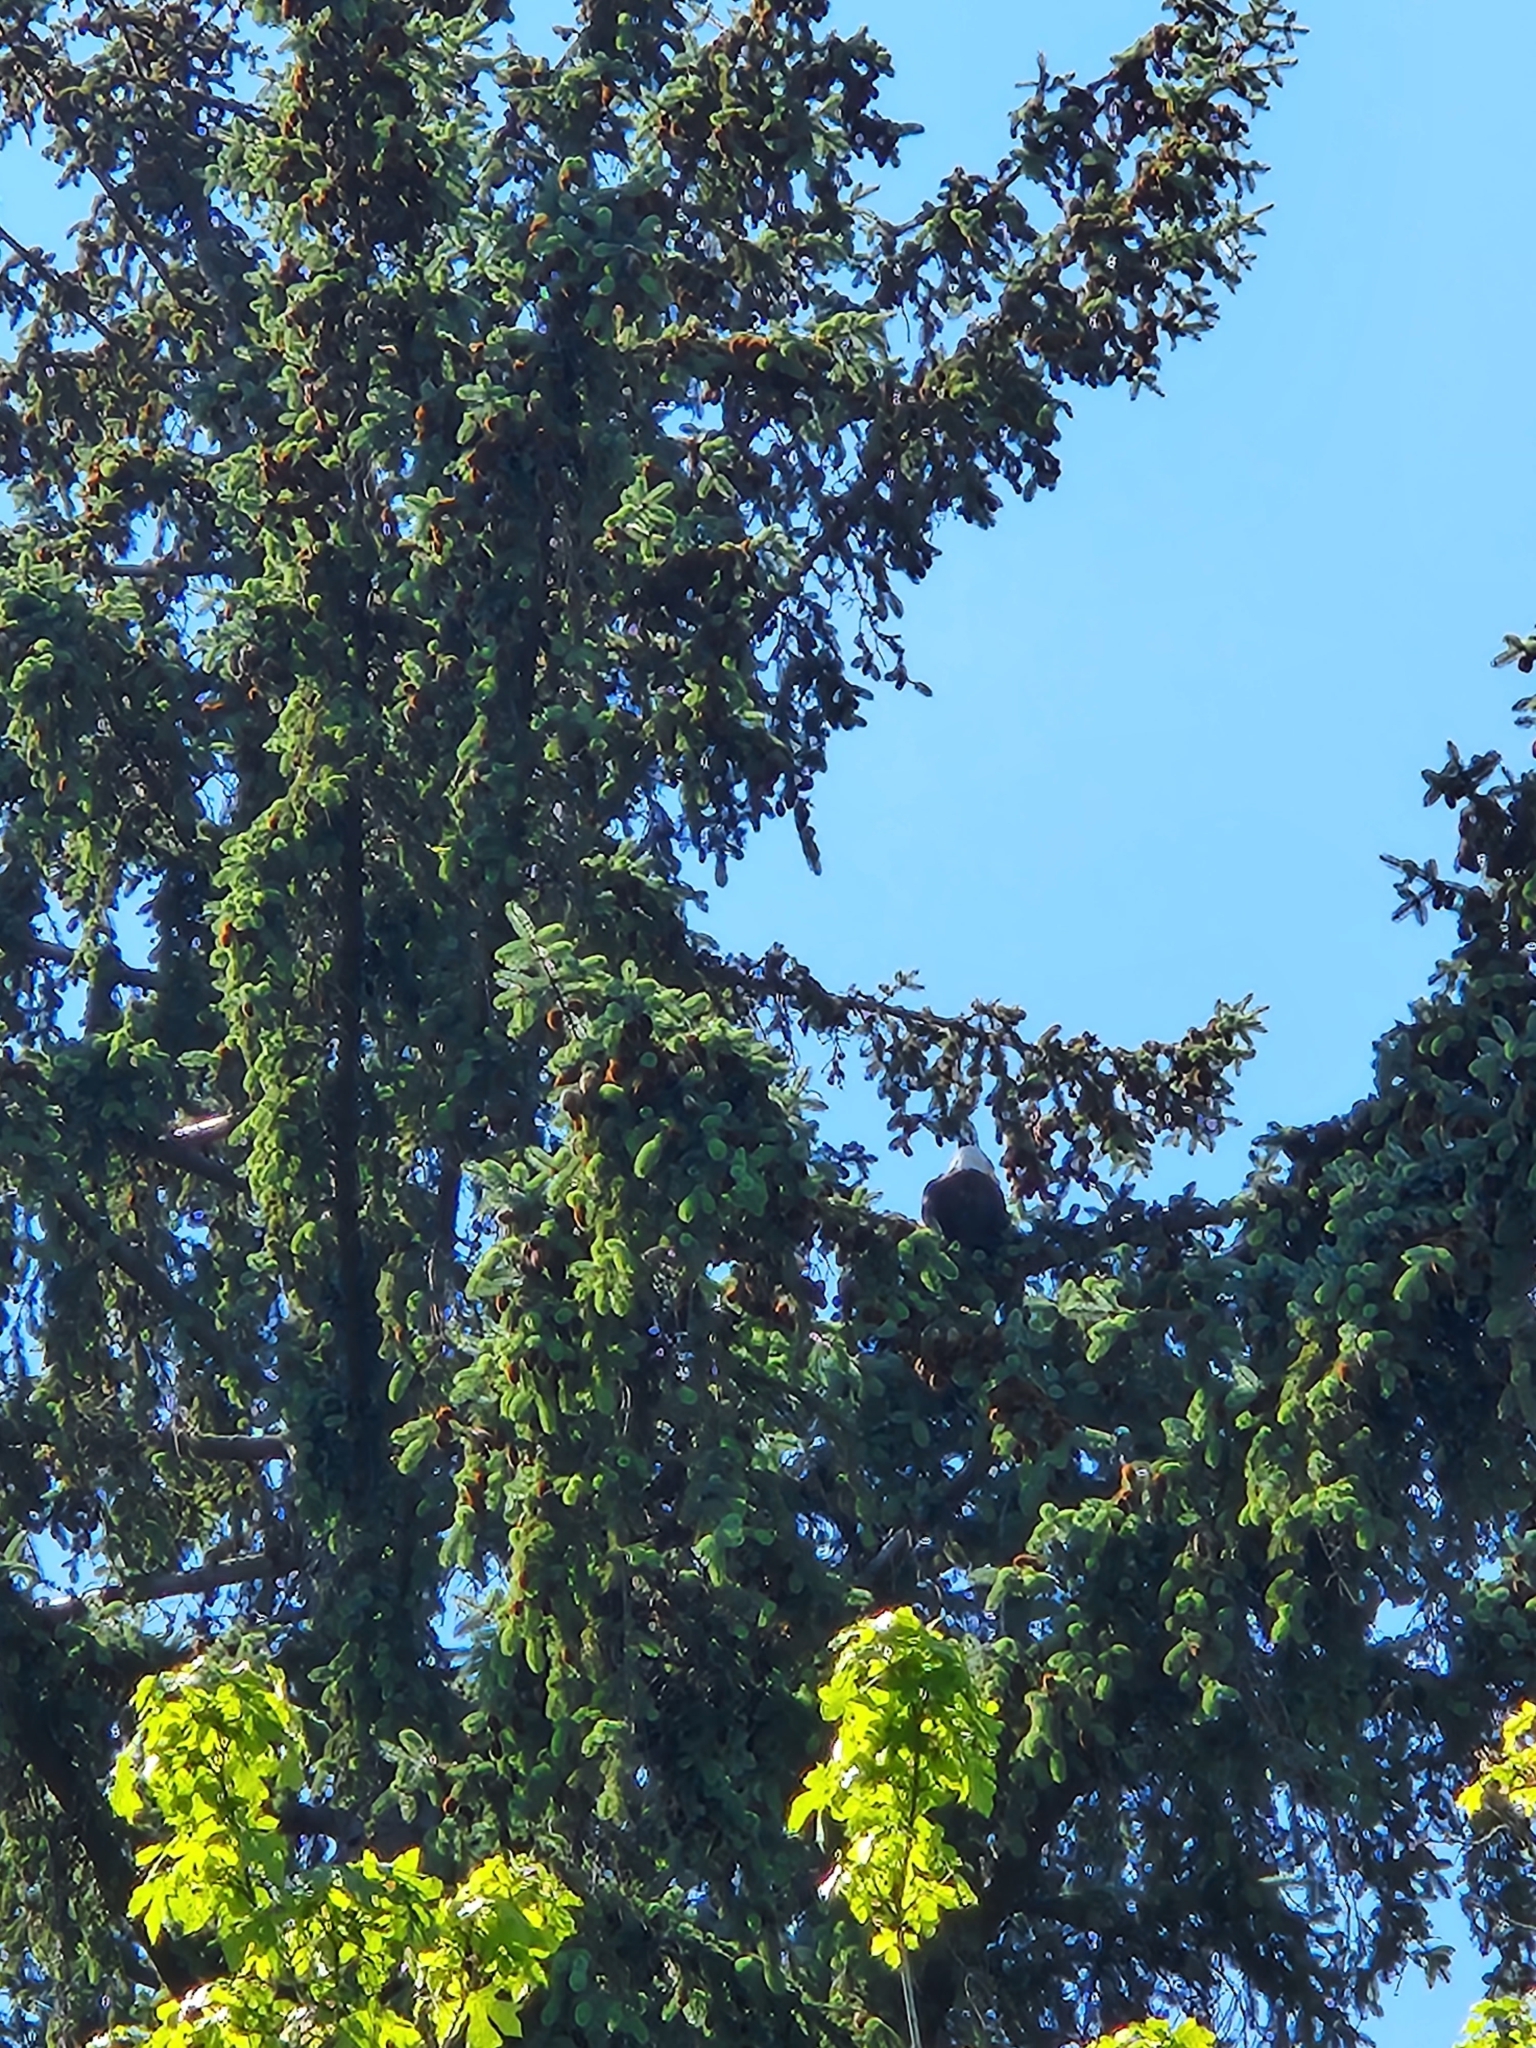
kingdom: Animalia
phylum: Chordata
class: Aves
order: Accipitriformes
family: Accipitridae
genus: Haliaeetus
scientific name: Haliaeetus leucocephalus
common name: Bald eagle
